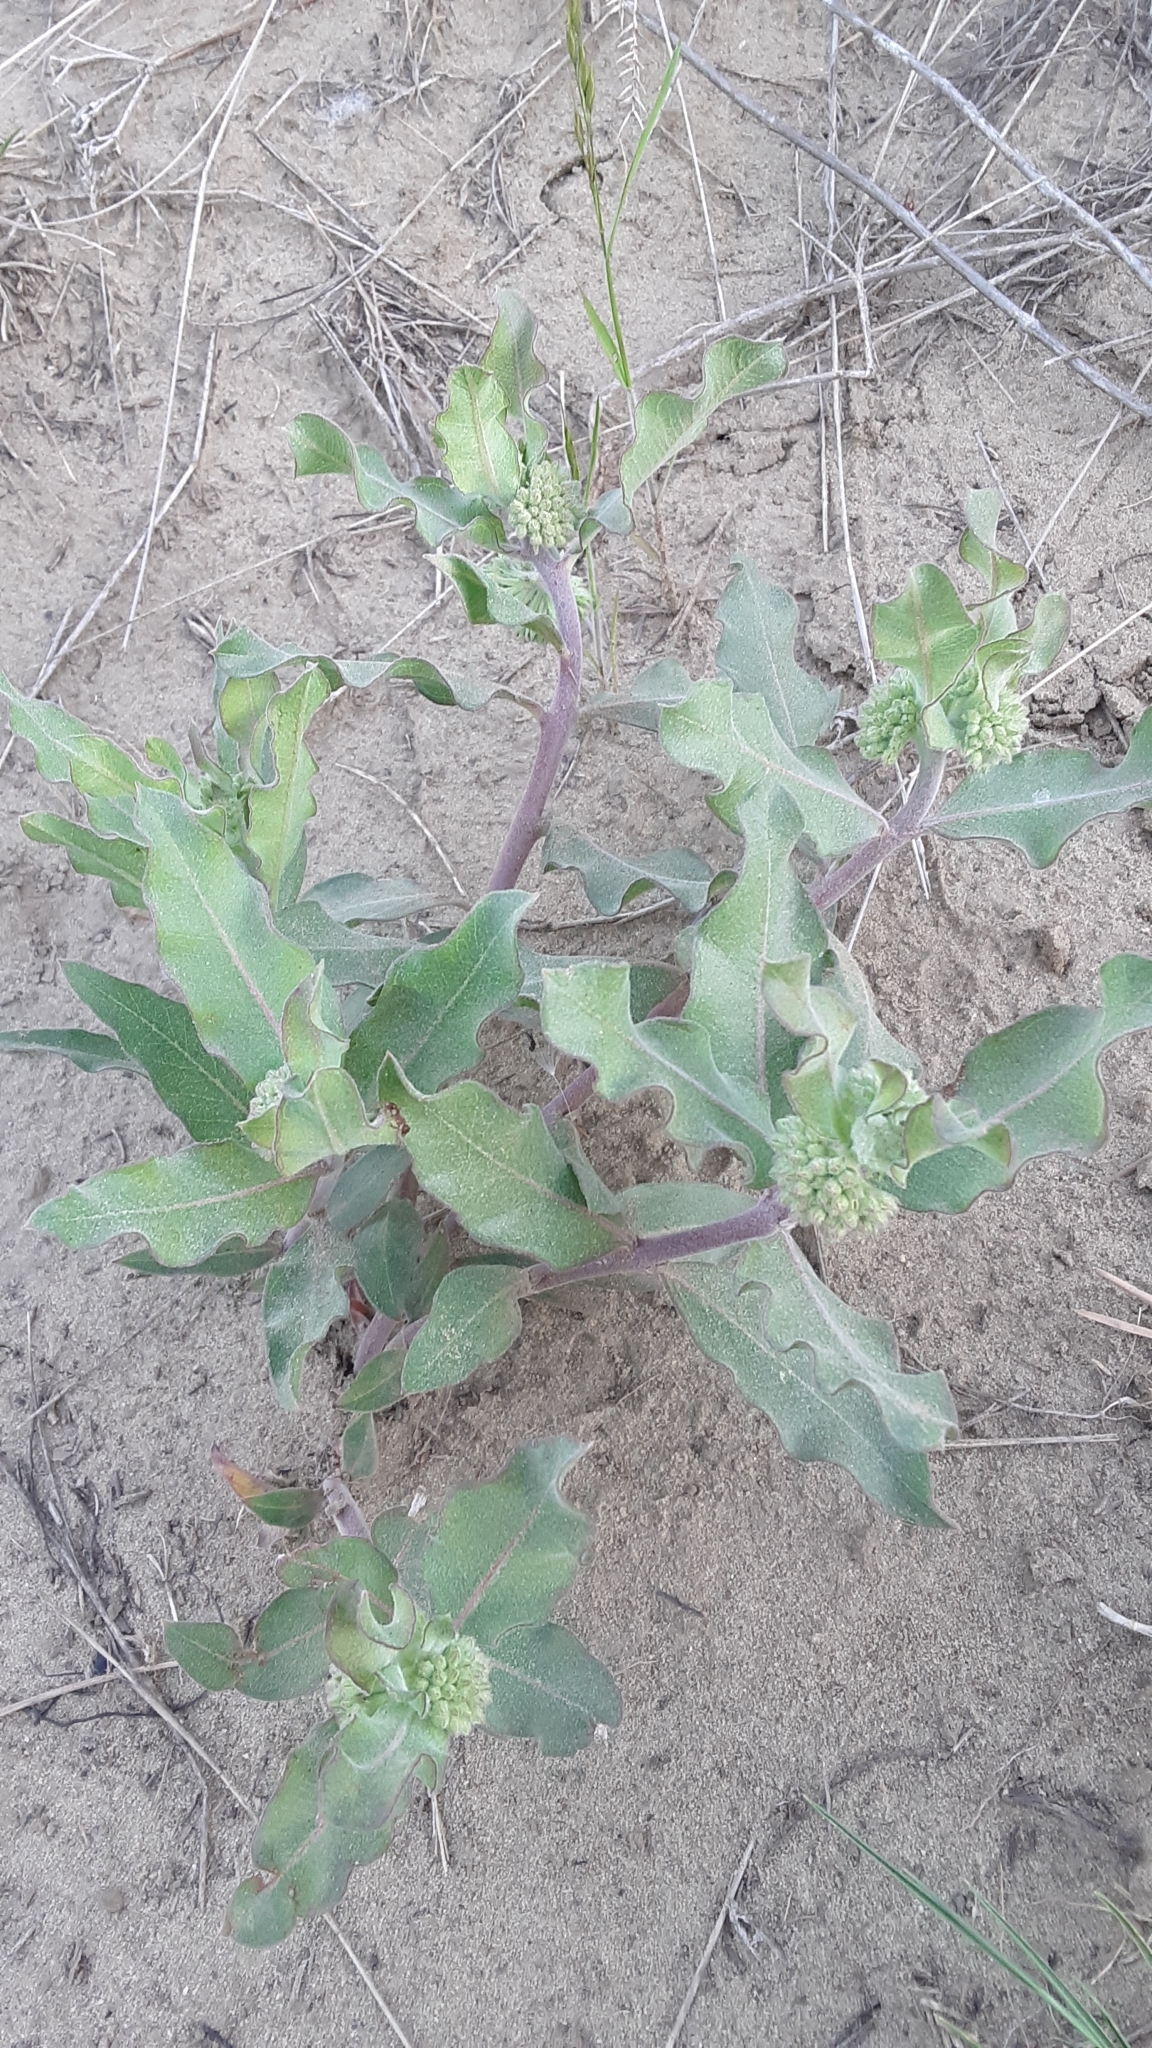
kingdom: Plantae
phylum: Tracheophyta
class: Magnoliopsida
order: Gentianales
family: Apocynaceae
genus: Asclepias
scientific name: Asclepias viridiflora
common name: Green comet milkweed
